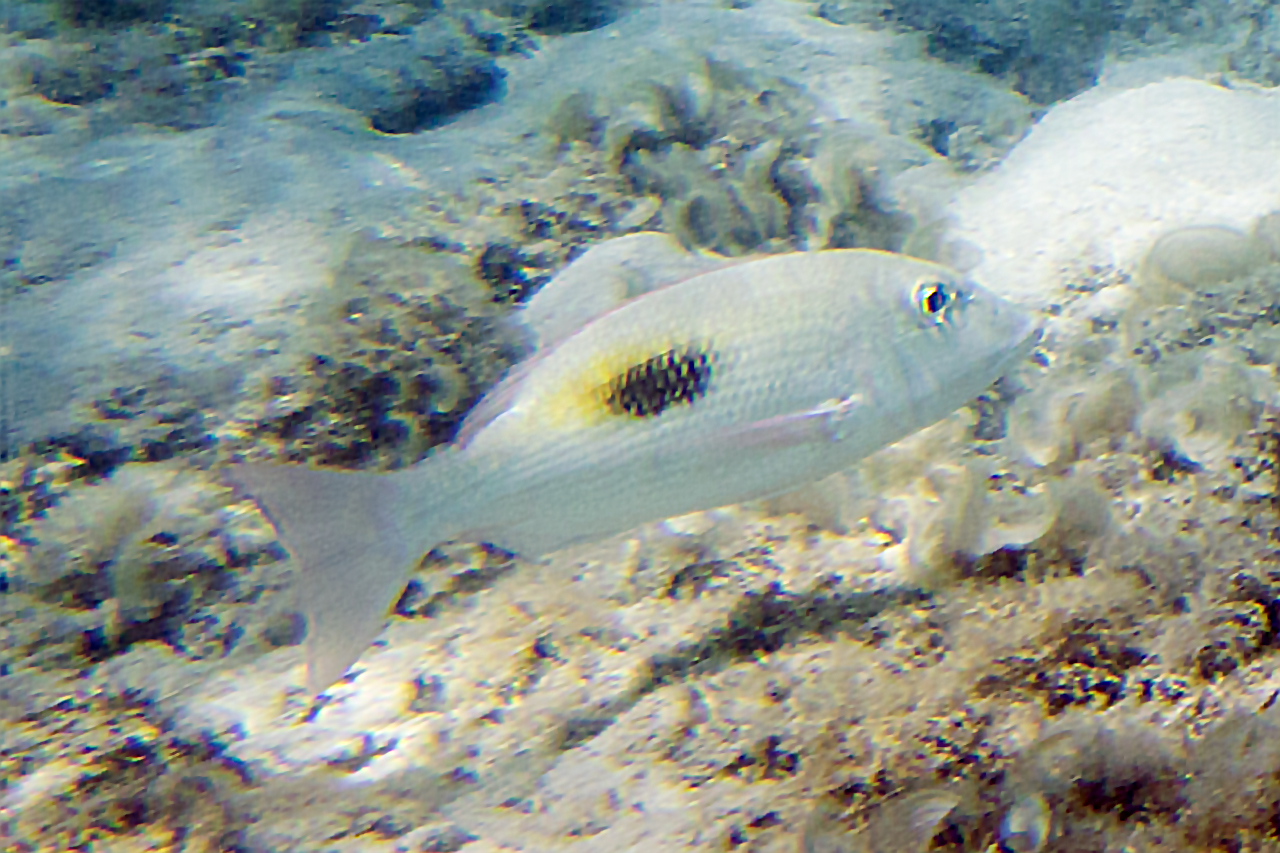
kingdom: Animalia
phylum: Chordata
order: Perciformes
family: Lethrinidae
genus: Lethrinus
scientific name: Lethrinus harak
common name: Blackspot emperor
